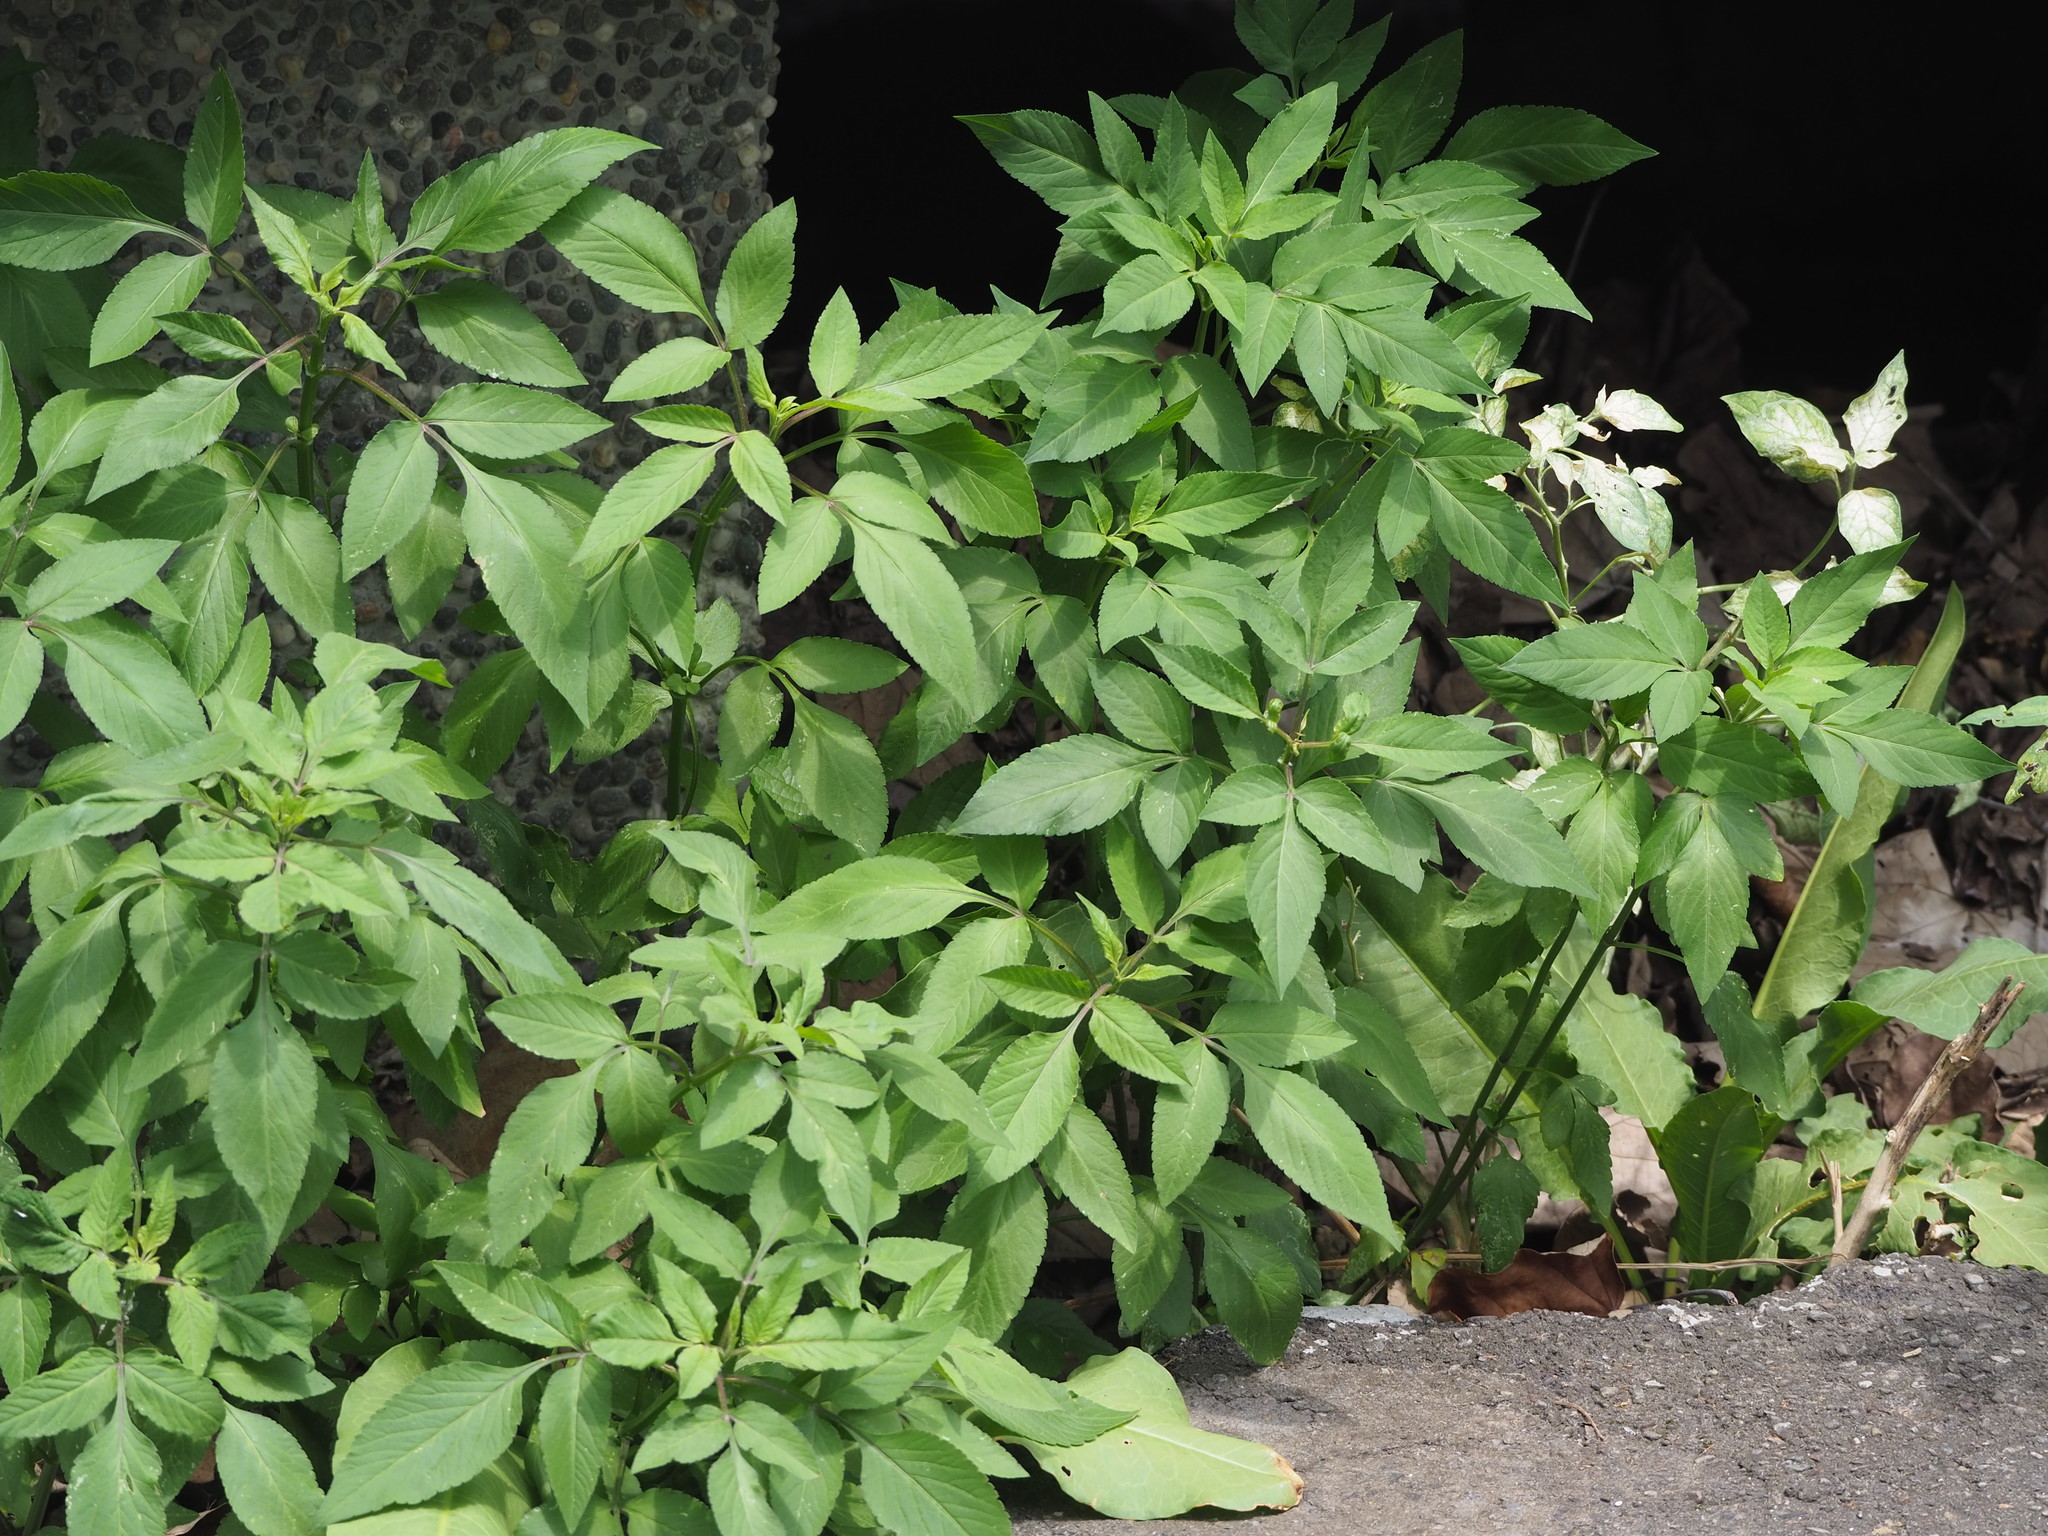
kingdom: Plantae
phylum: Tracheophyta
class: Magnoliopsida
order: Asterales
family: Asteraceae
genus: Bidens
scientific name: Bidens alba
